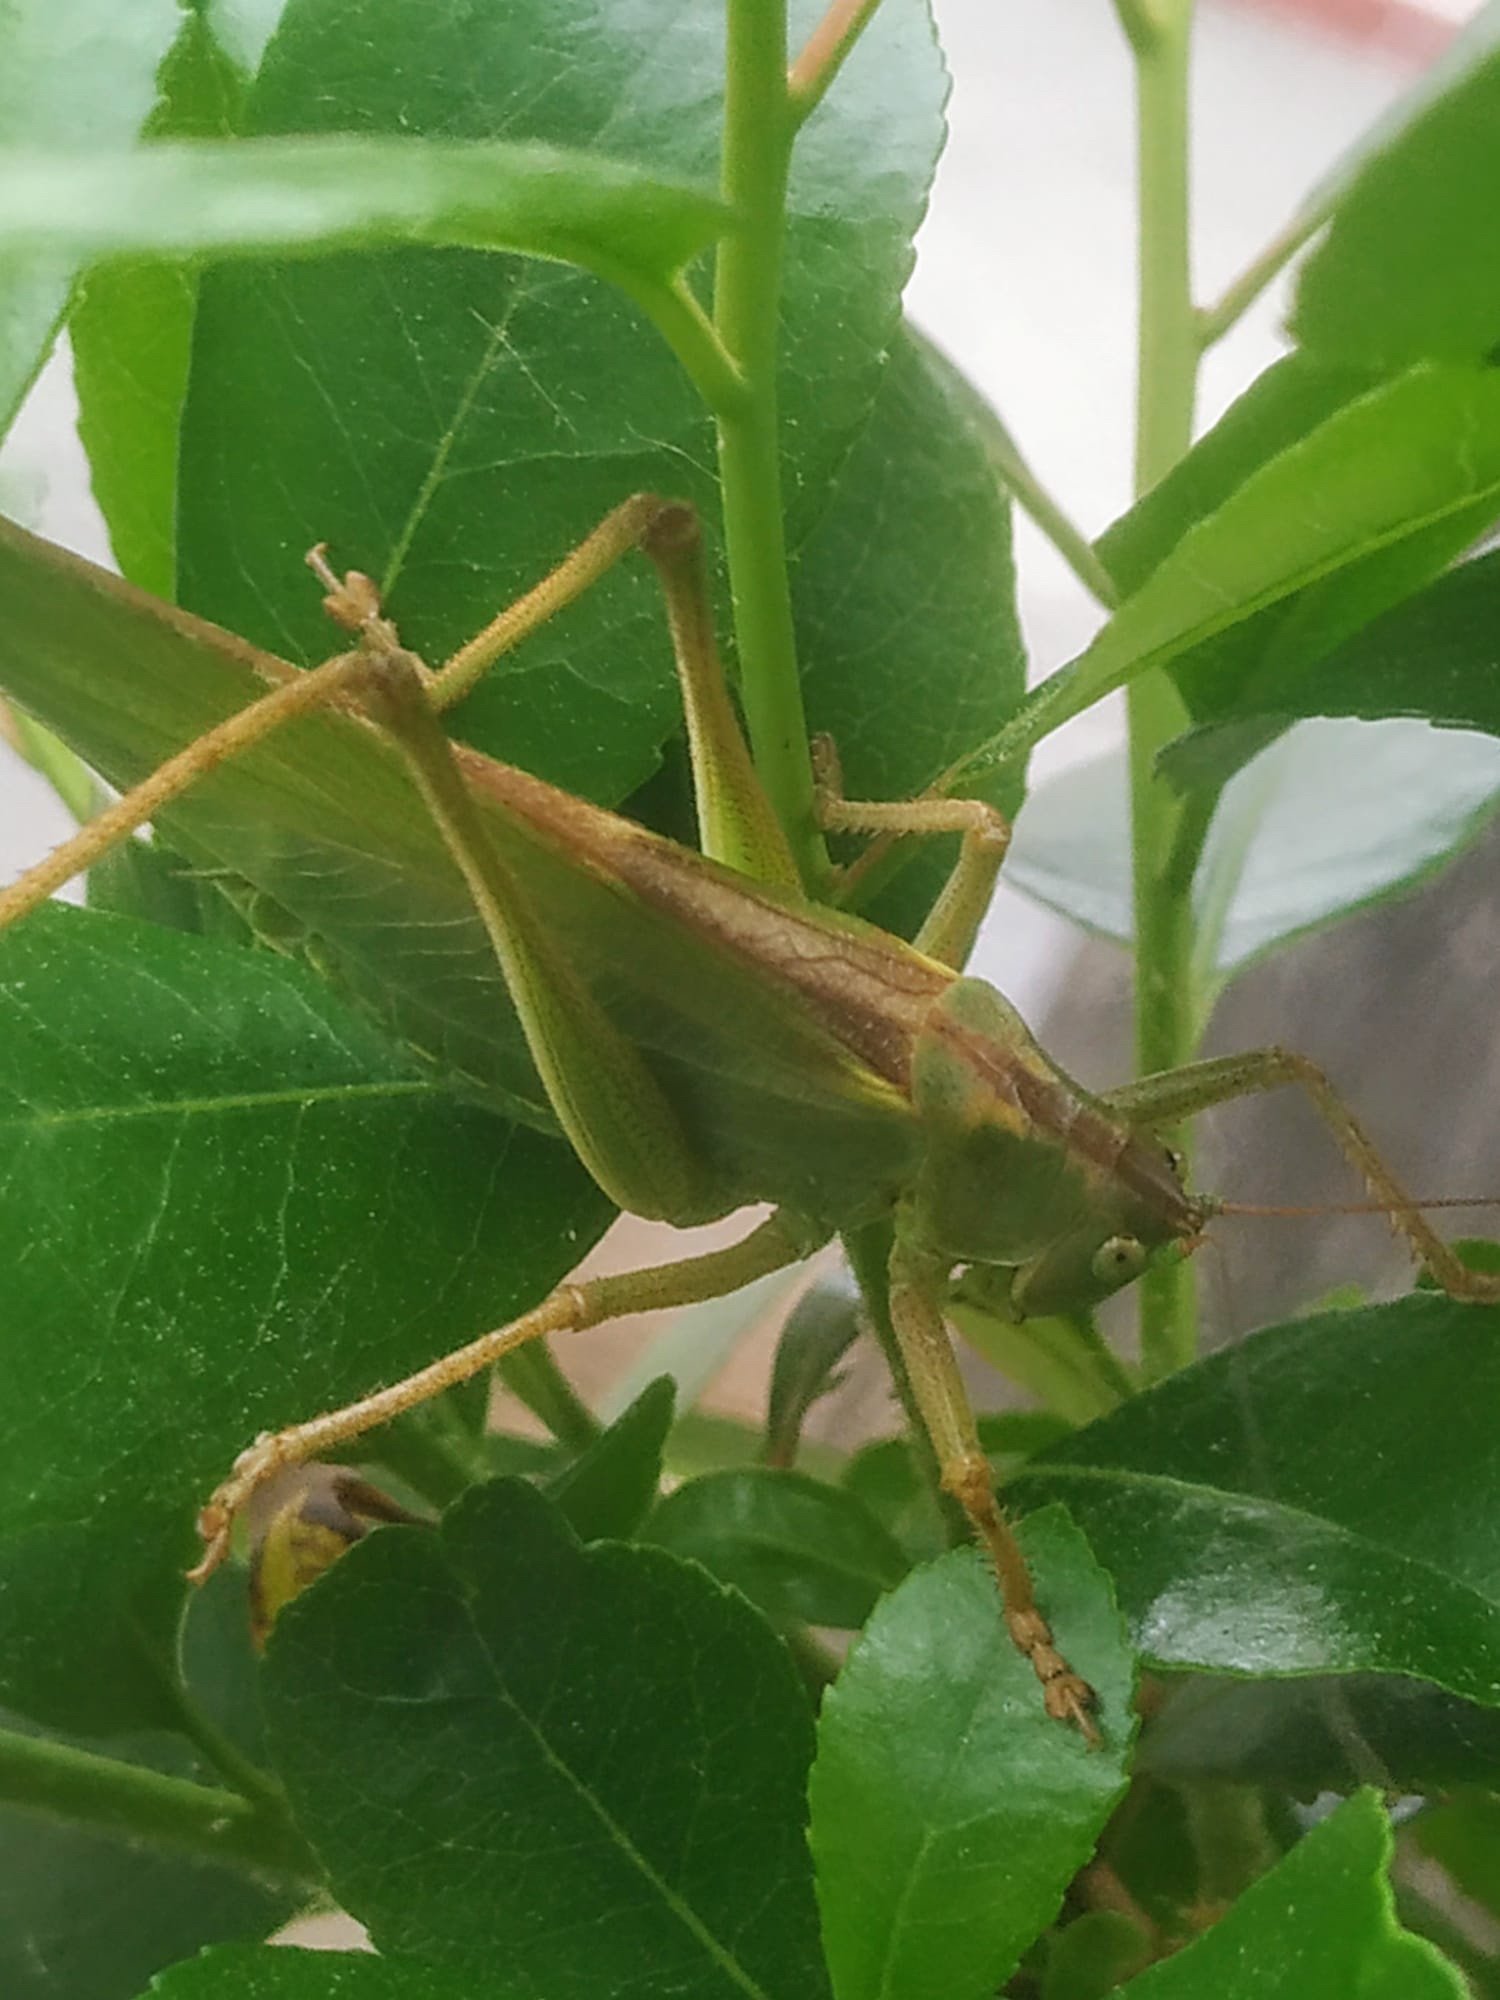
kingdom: Animalia
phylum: Arthropoda
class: Insecta
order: Orthoptera
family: Tettigoniidae
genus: Tettigonia
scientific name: Tettigonia viridissima
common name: Great green bush-cricket
